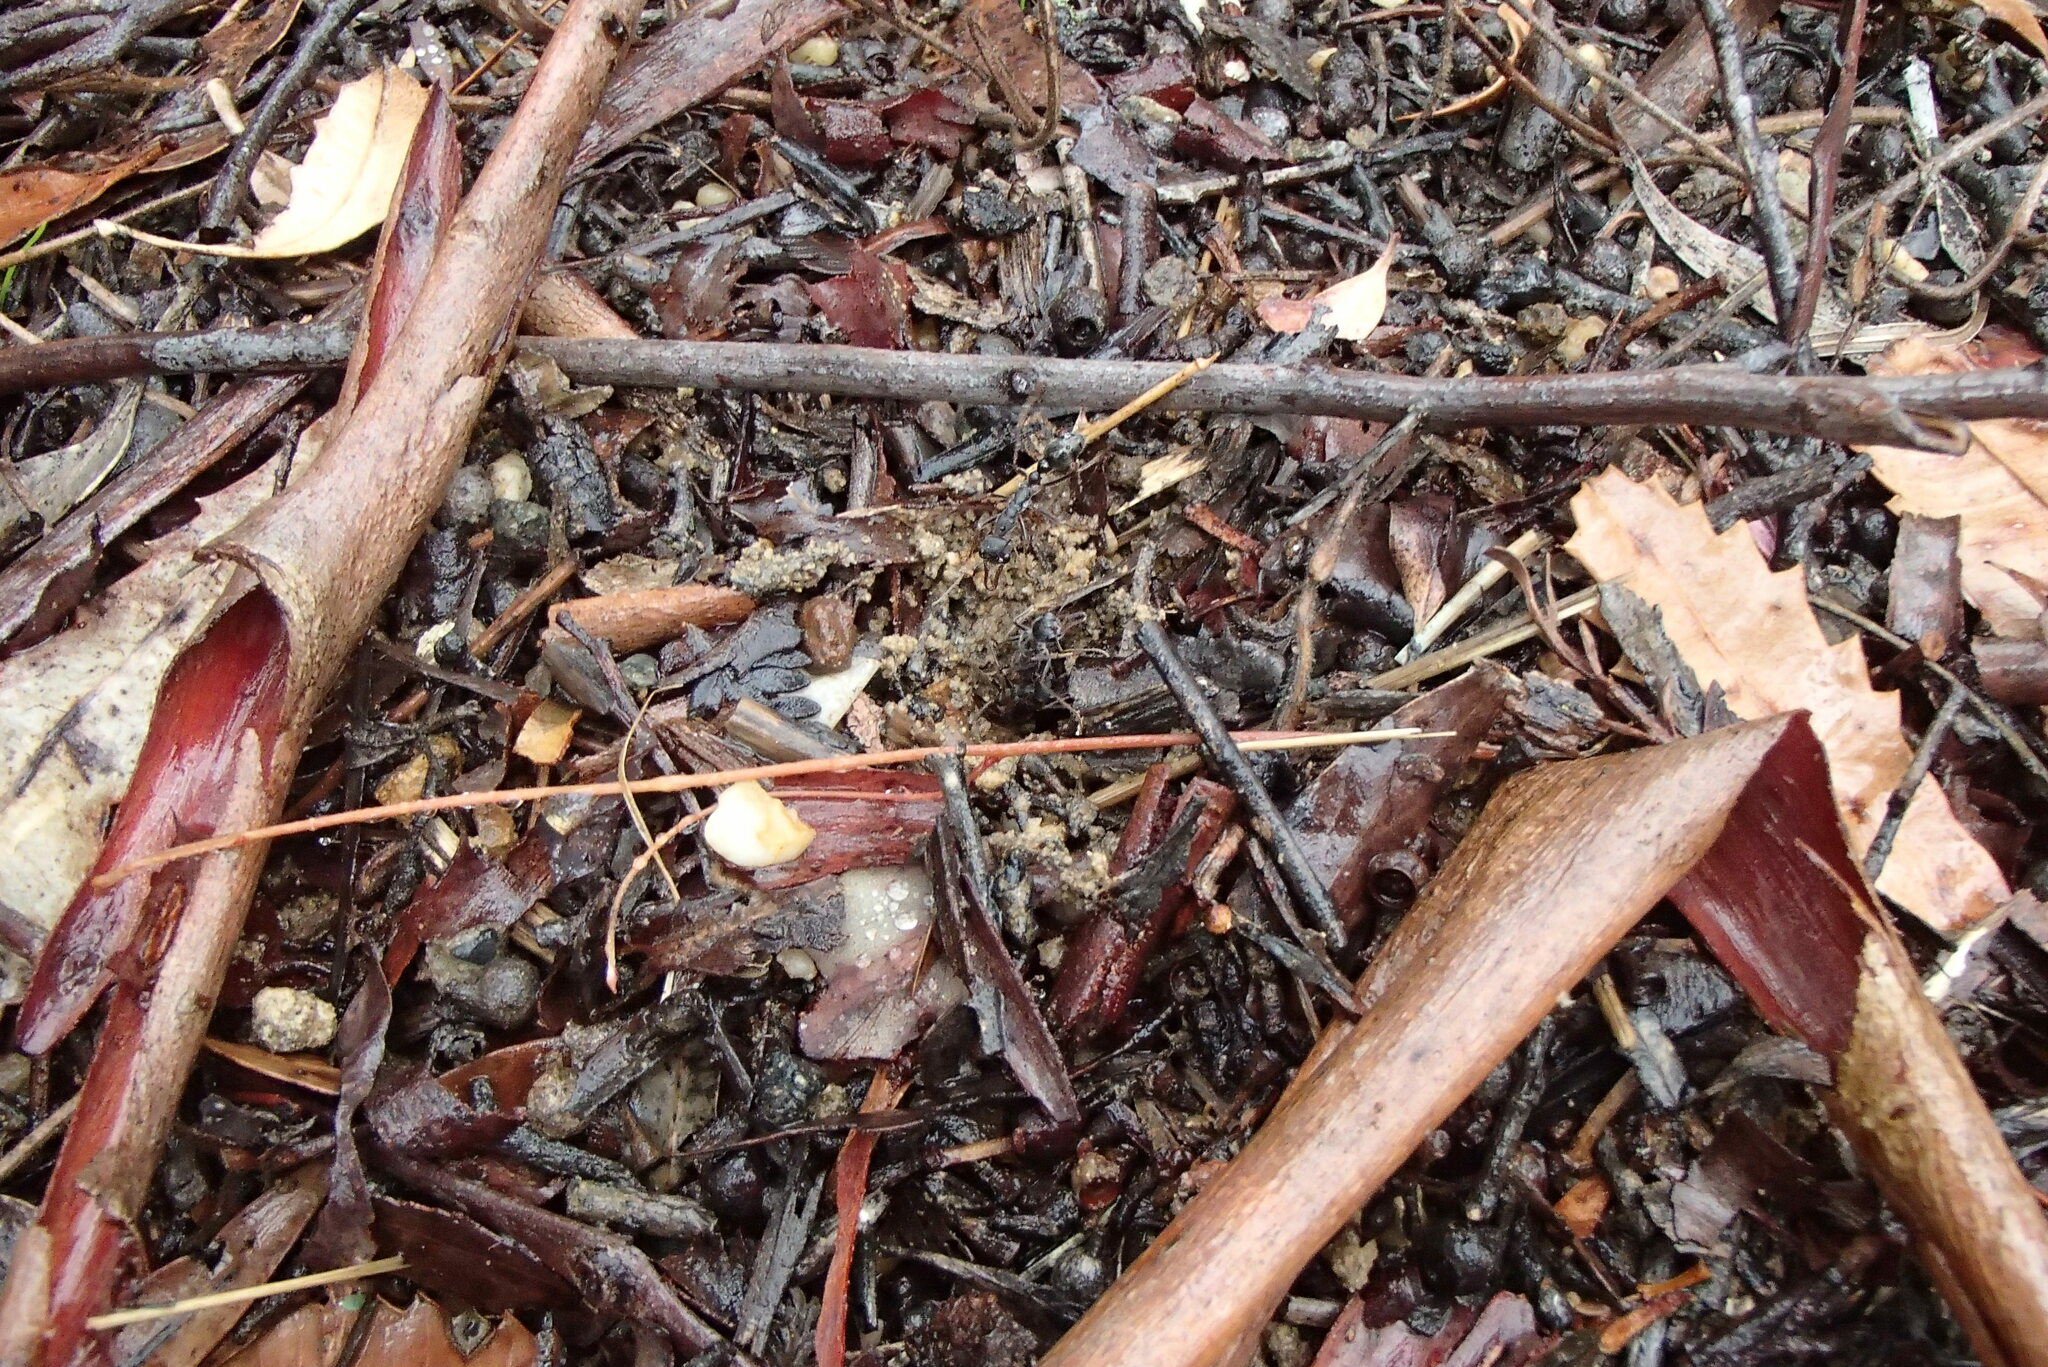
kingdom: Animalia
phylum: Arthropoda
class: Insecta
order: Hymenoptera
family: Formicidae
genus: Myrmecia
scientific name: Myrmecia pyriformis
